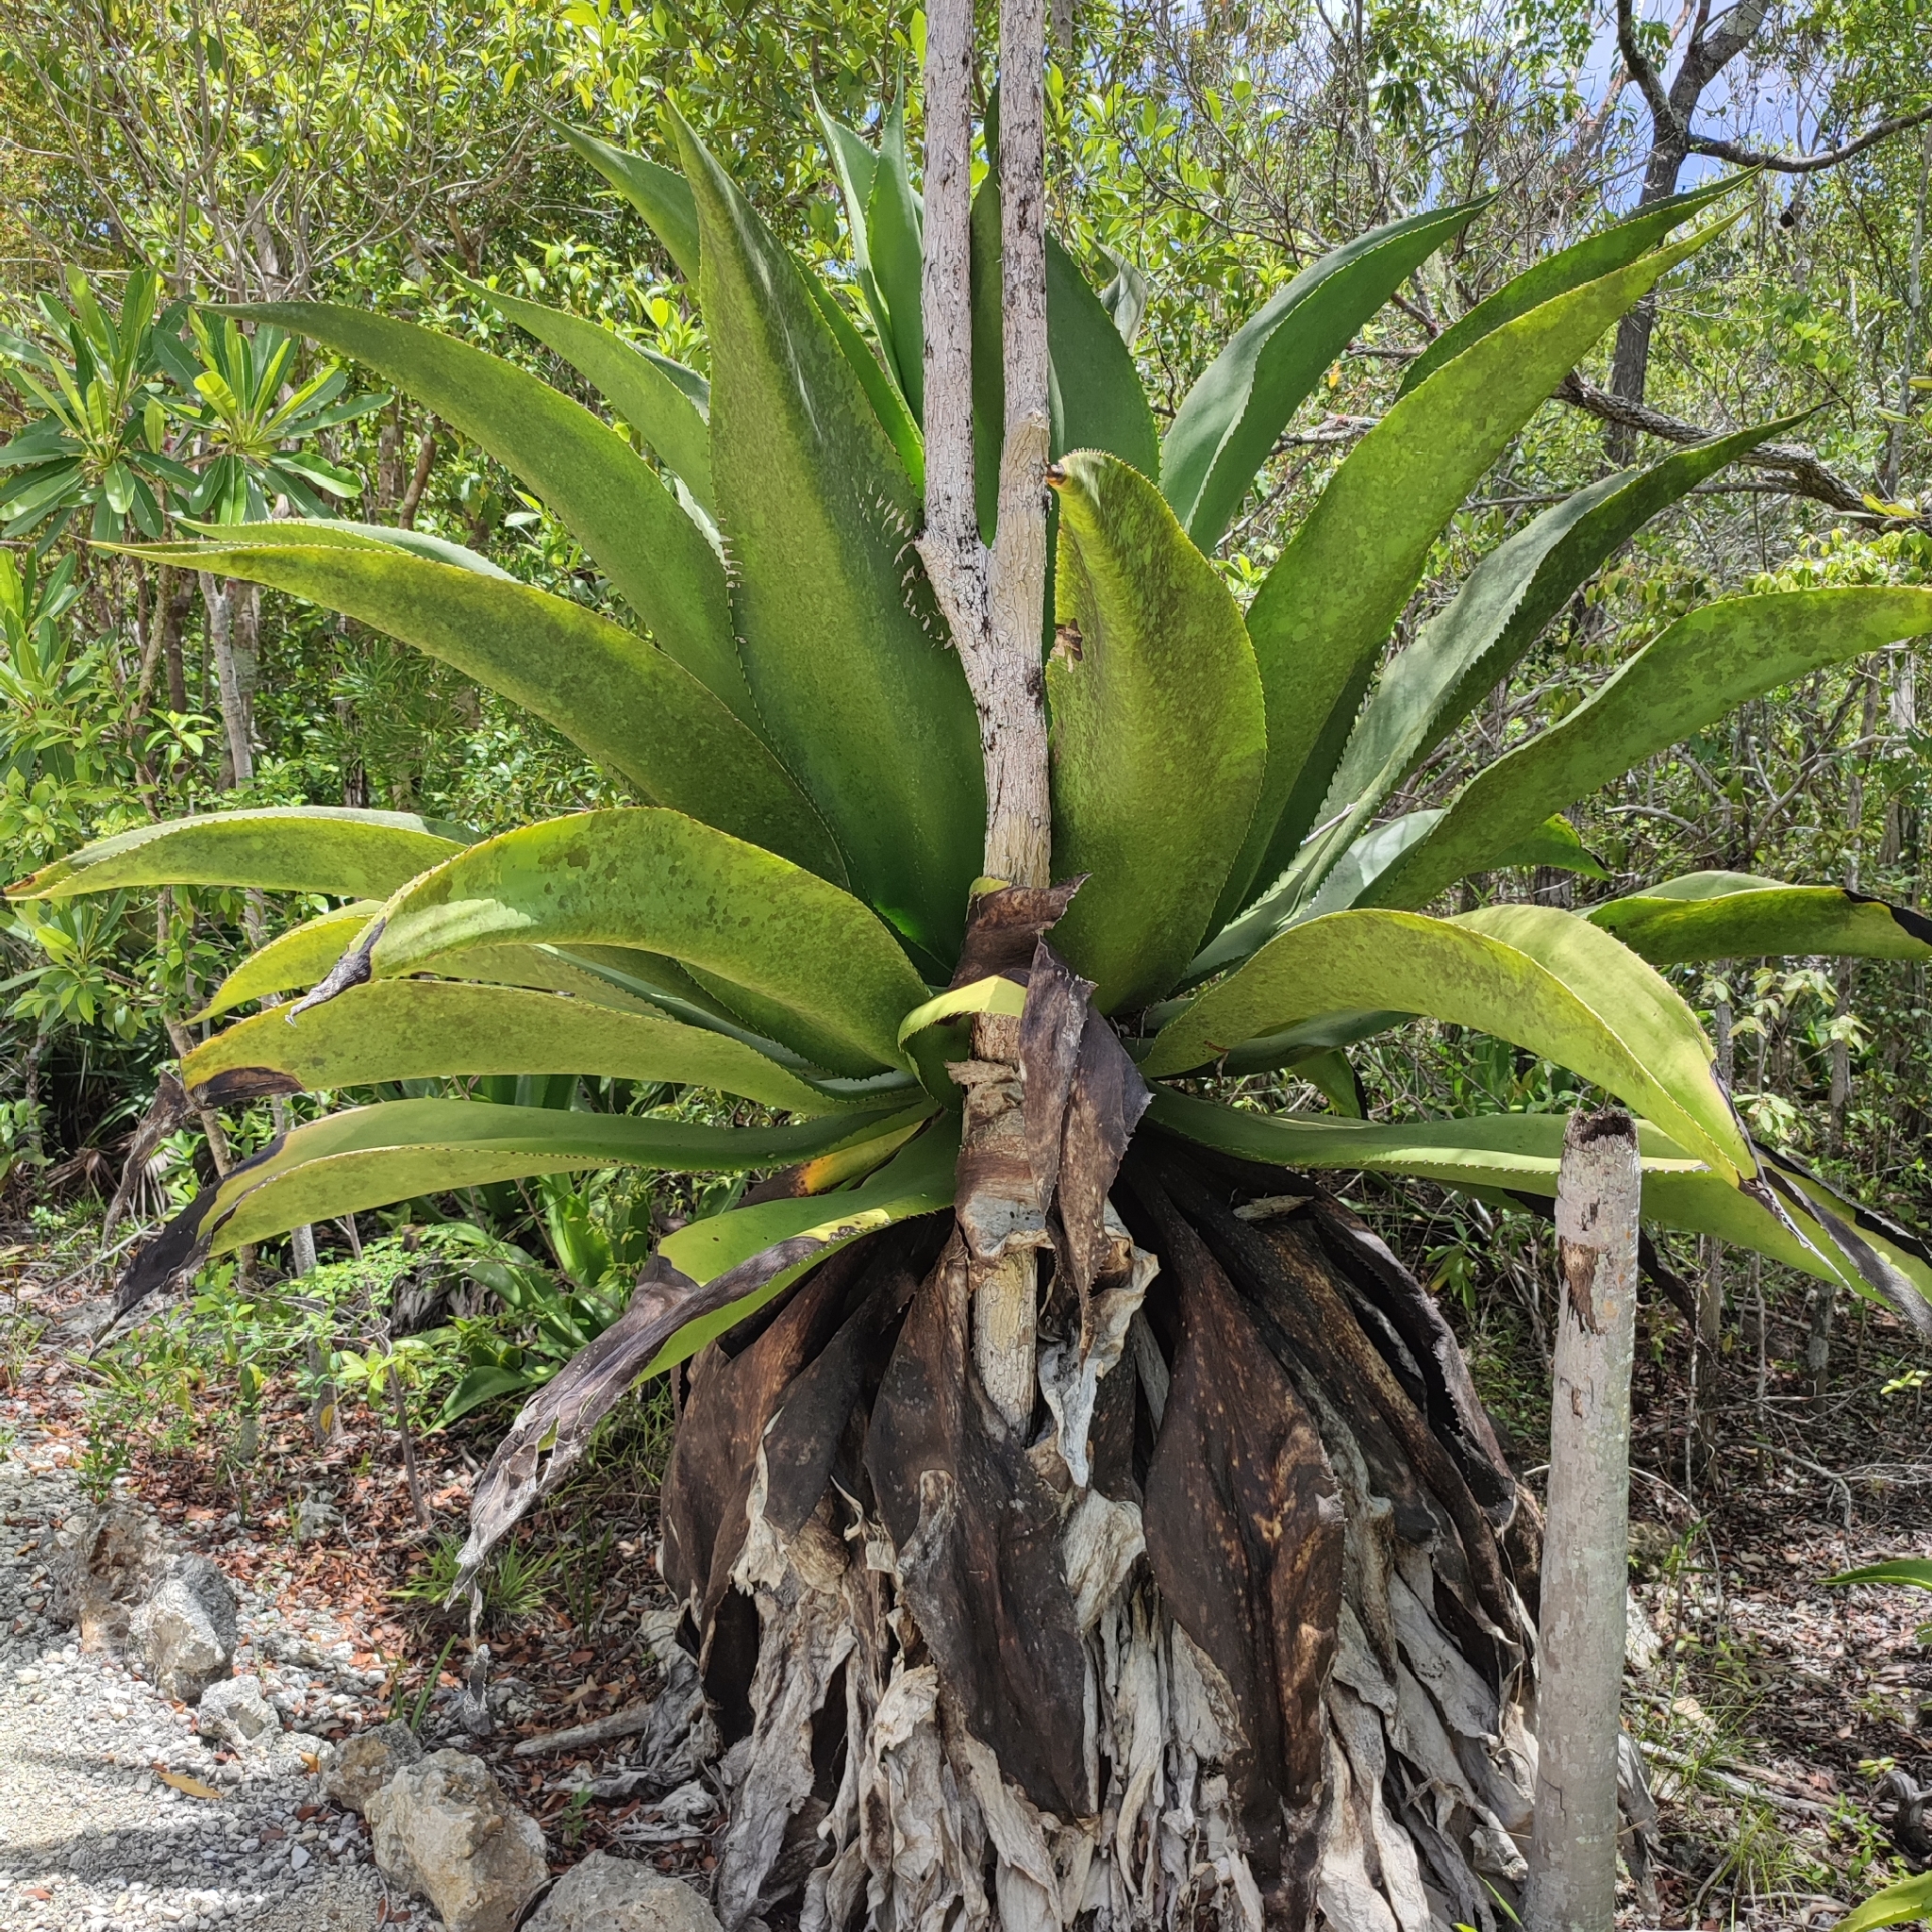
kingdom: Plantae
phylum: Tracheophyta
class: Liliopsida
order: Asparagales
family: Asparagaceae
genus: Agave
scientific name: Agave caymanensis
